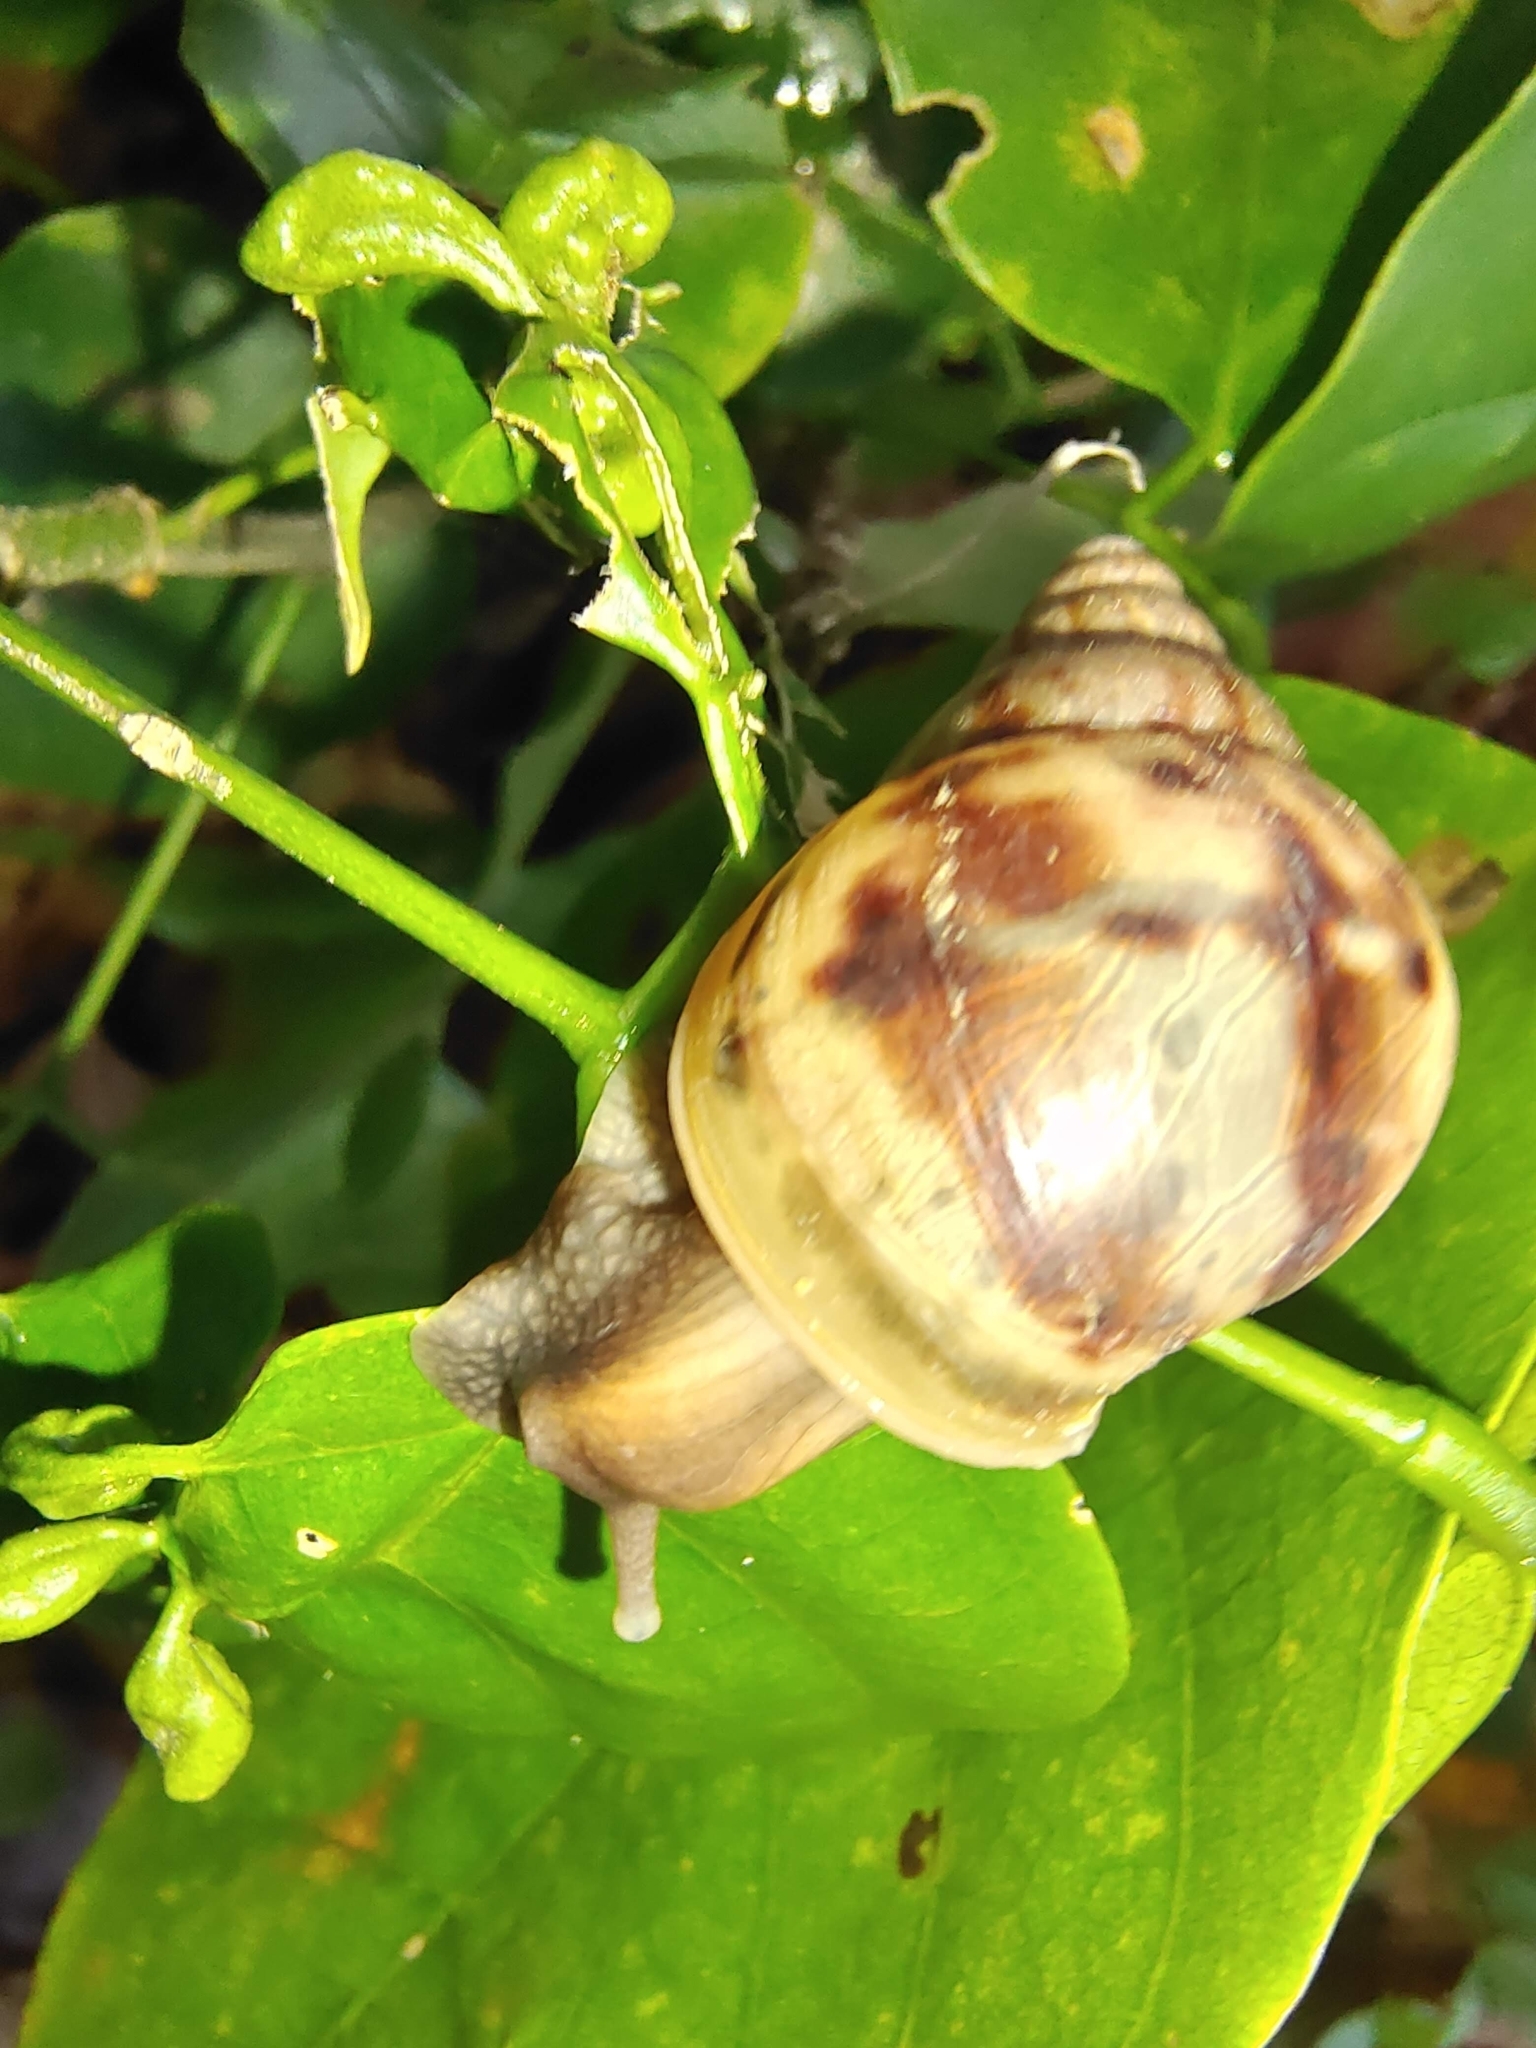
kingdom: Animalia
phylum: Mollusca
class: Gastropoda
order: Stylommatophora
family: Achatinidae
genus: Lissachatina
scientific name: Lissachatina fulica
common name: Giant african snail
